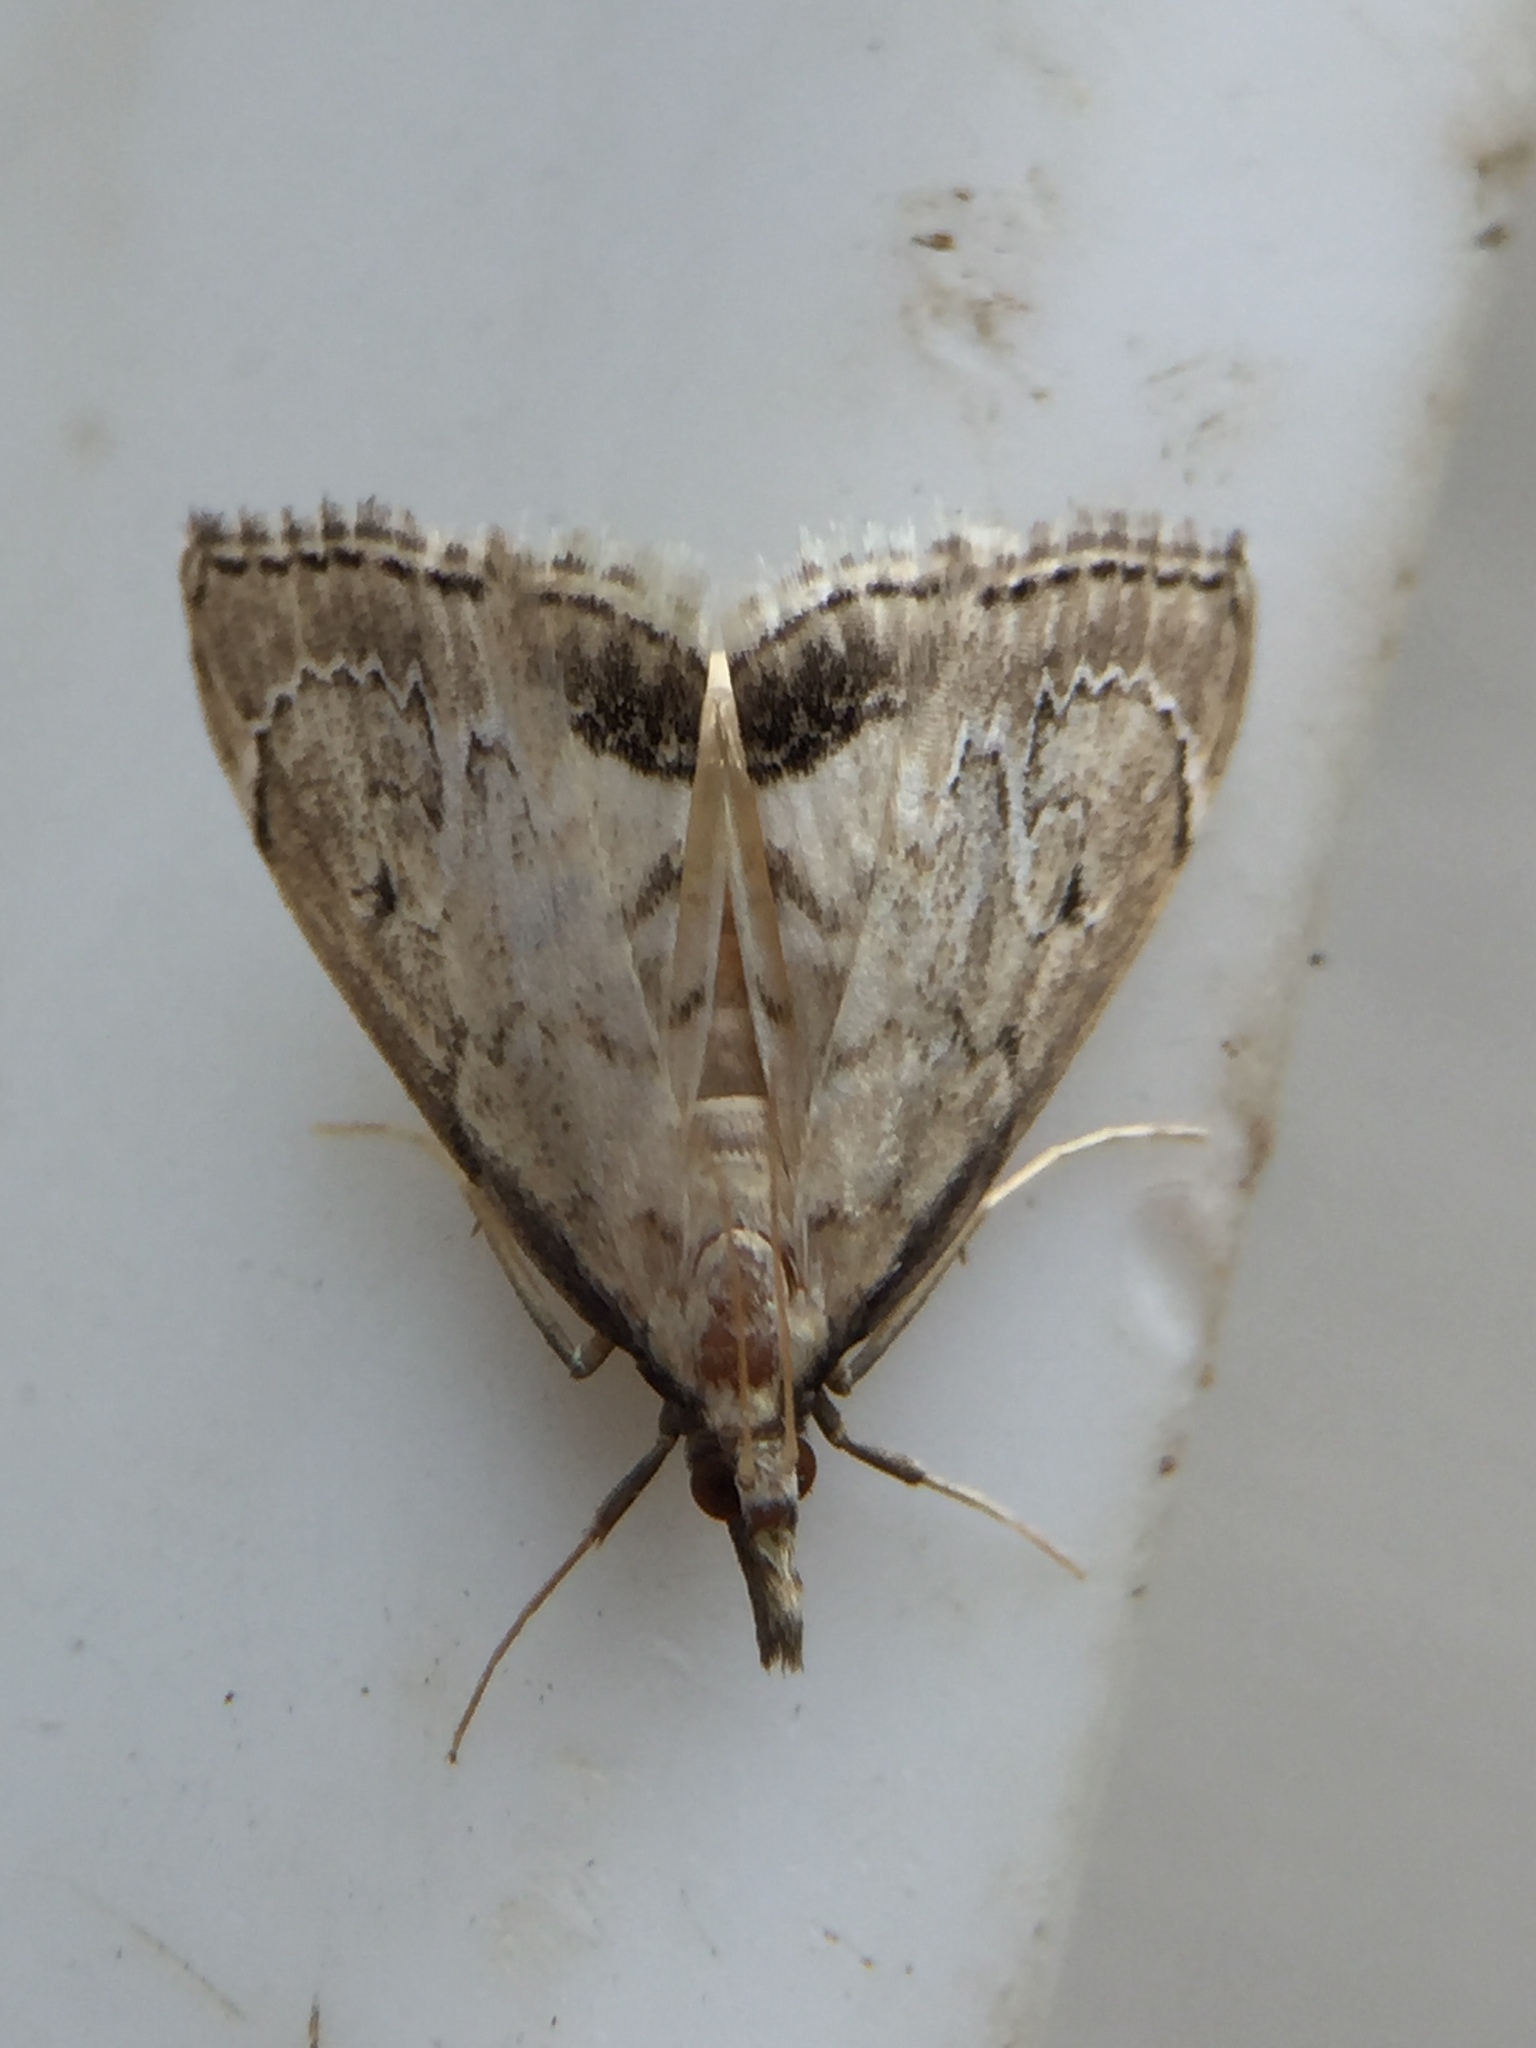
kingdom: Animalia
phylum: Arthropoda
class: Insecta
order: Lepidoptera
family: Crambidae
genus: Clepsicosma
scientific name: Clepsicosma iridia
